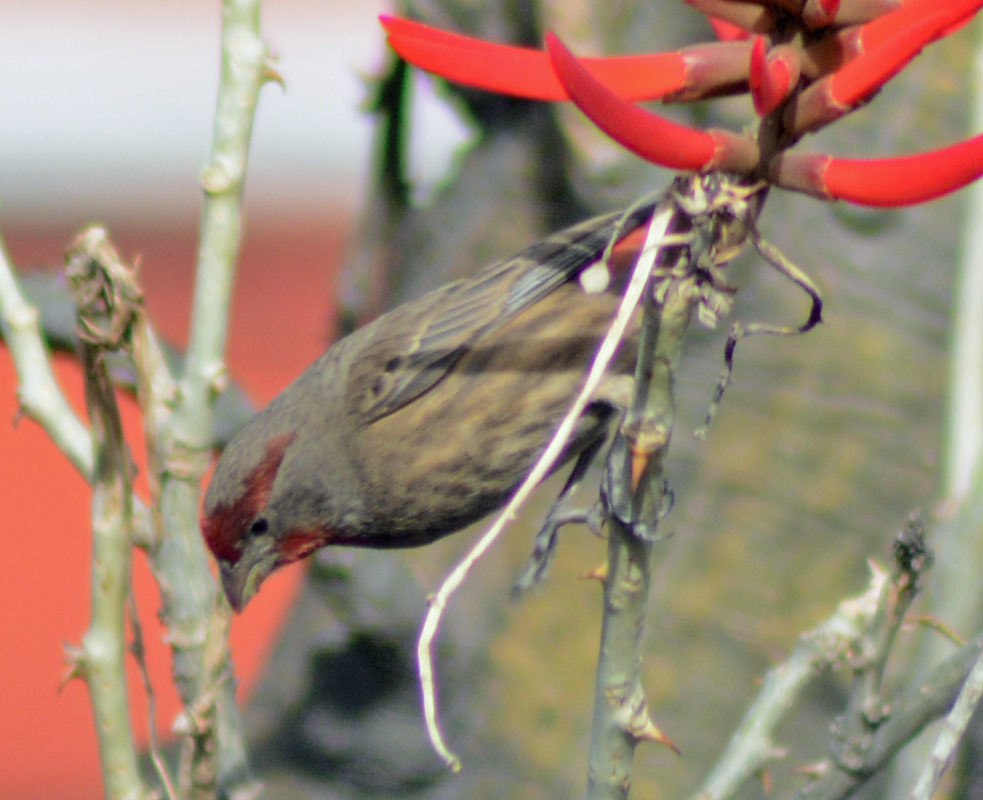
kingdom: Animalia
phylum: Chordata
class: Aves
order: Passeriformes
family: Fringillidae
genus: Haemorhous
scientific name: Haemorhous mexicanus
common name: House finch
